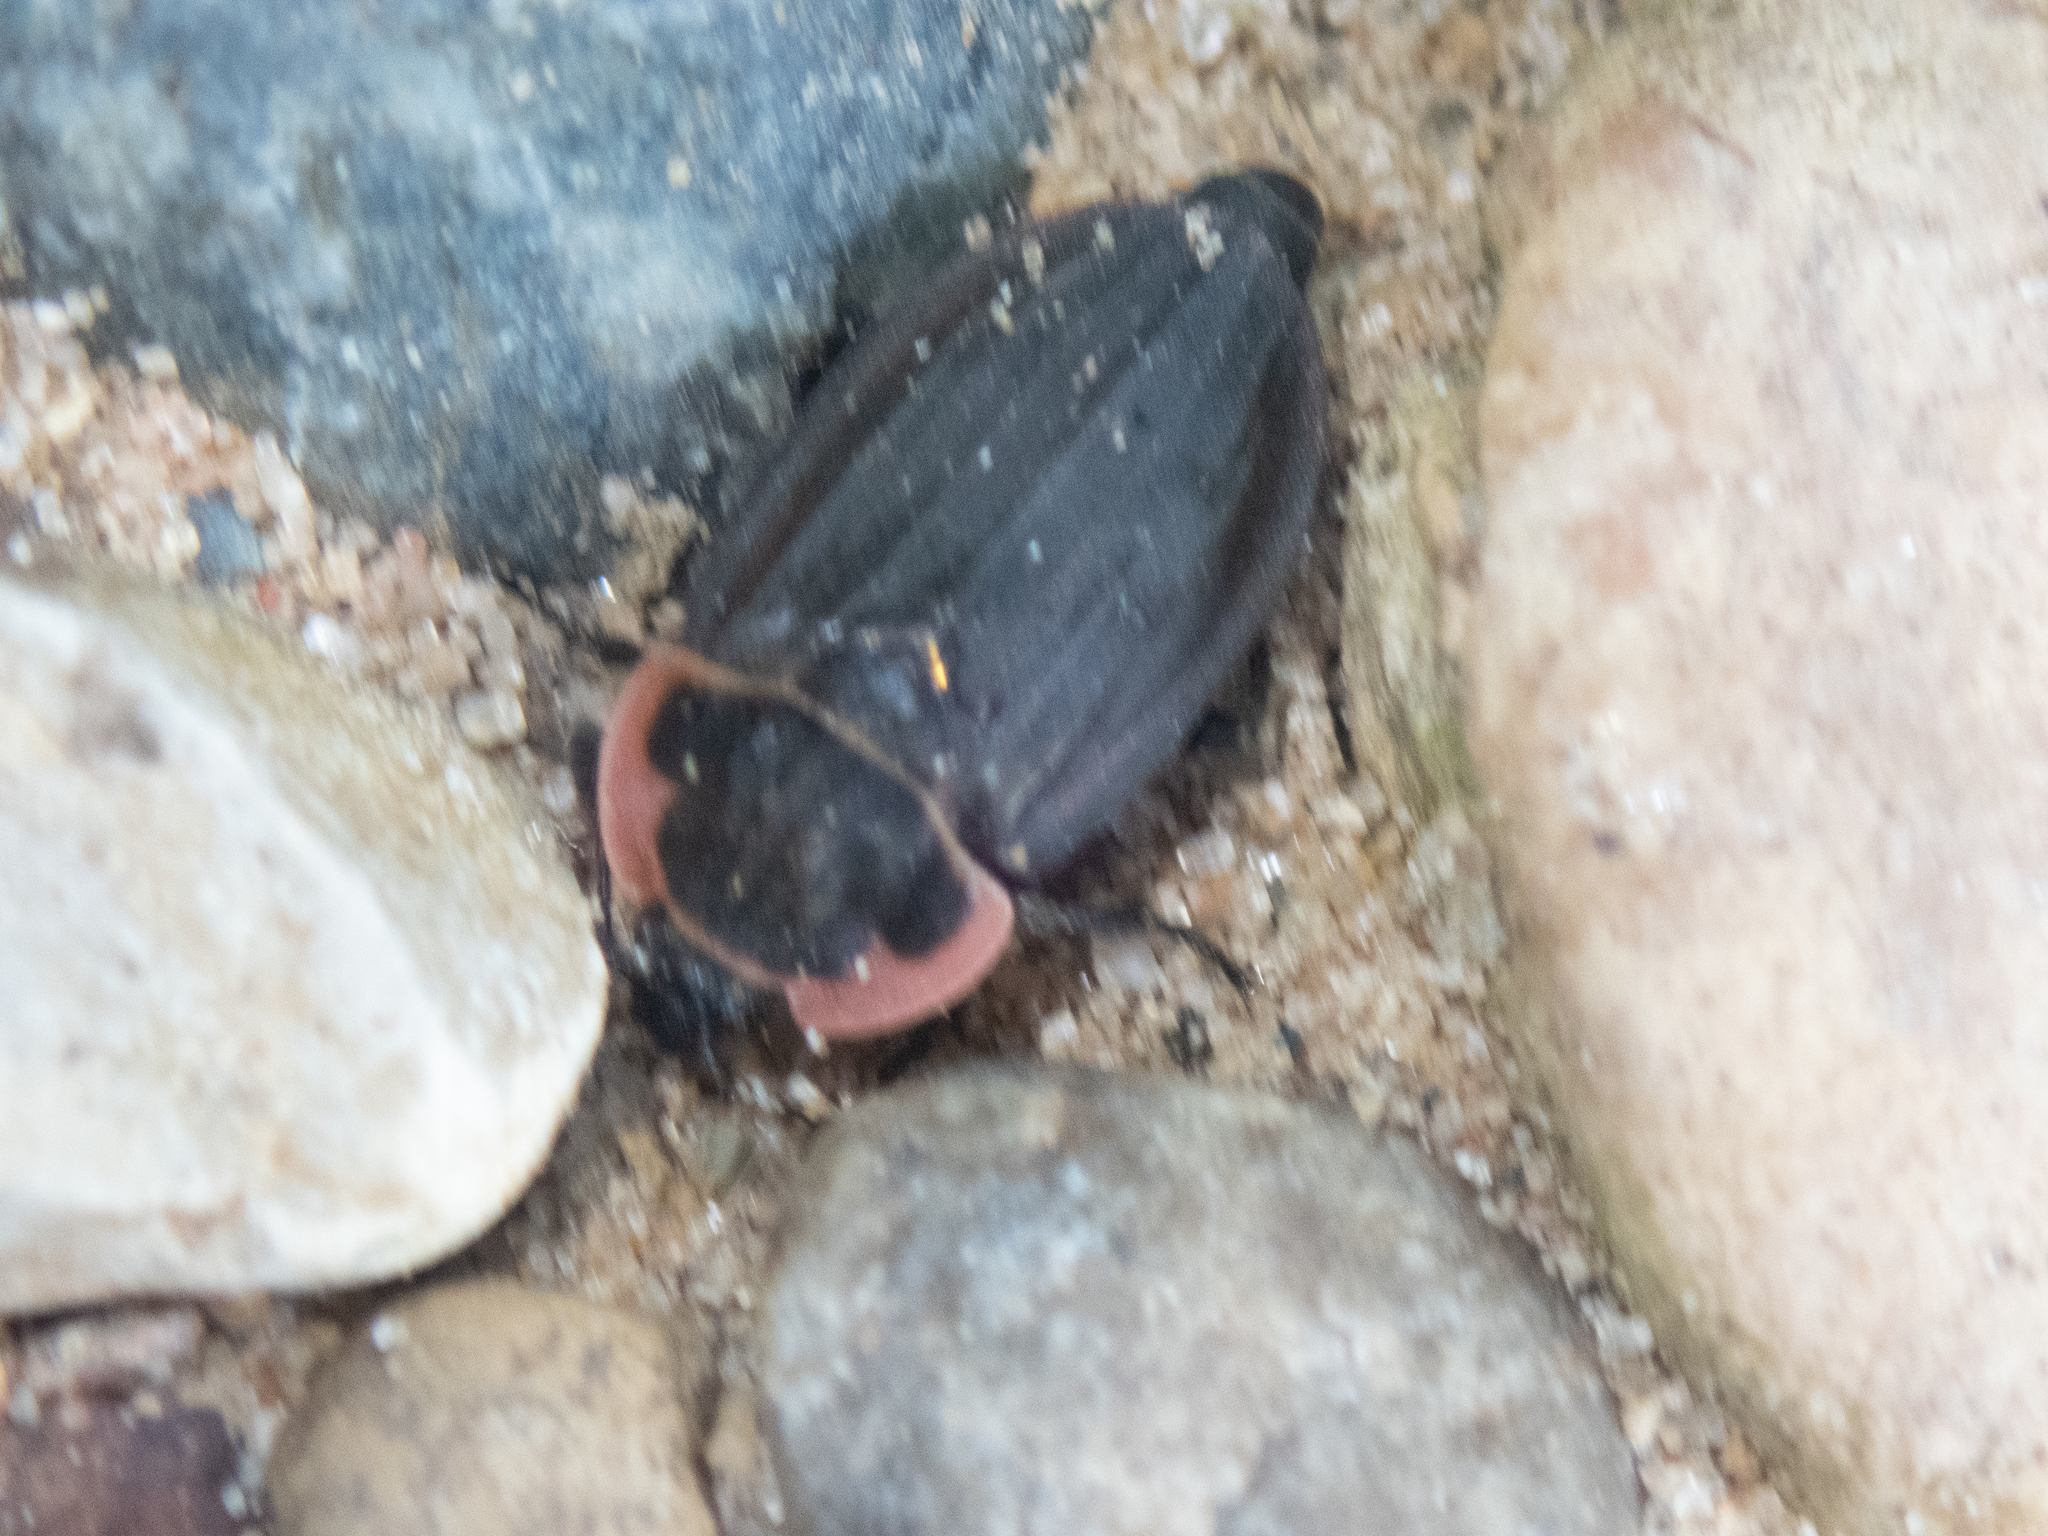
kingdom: Animalia
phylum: Arthropoda
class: Insecta
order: Coleoptera
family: Staphylinidae
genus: Oiceoptoma
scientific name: Oiceoptoma noveboracense
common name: Margined carrion beetle
